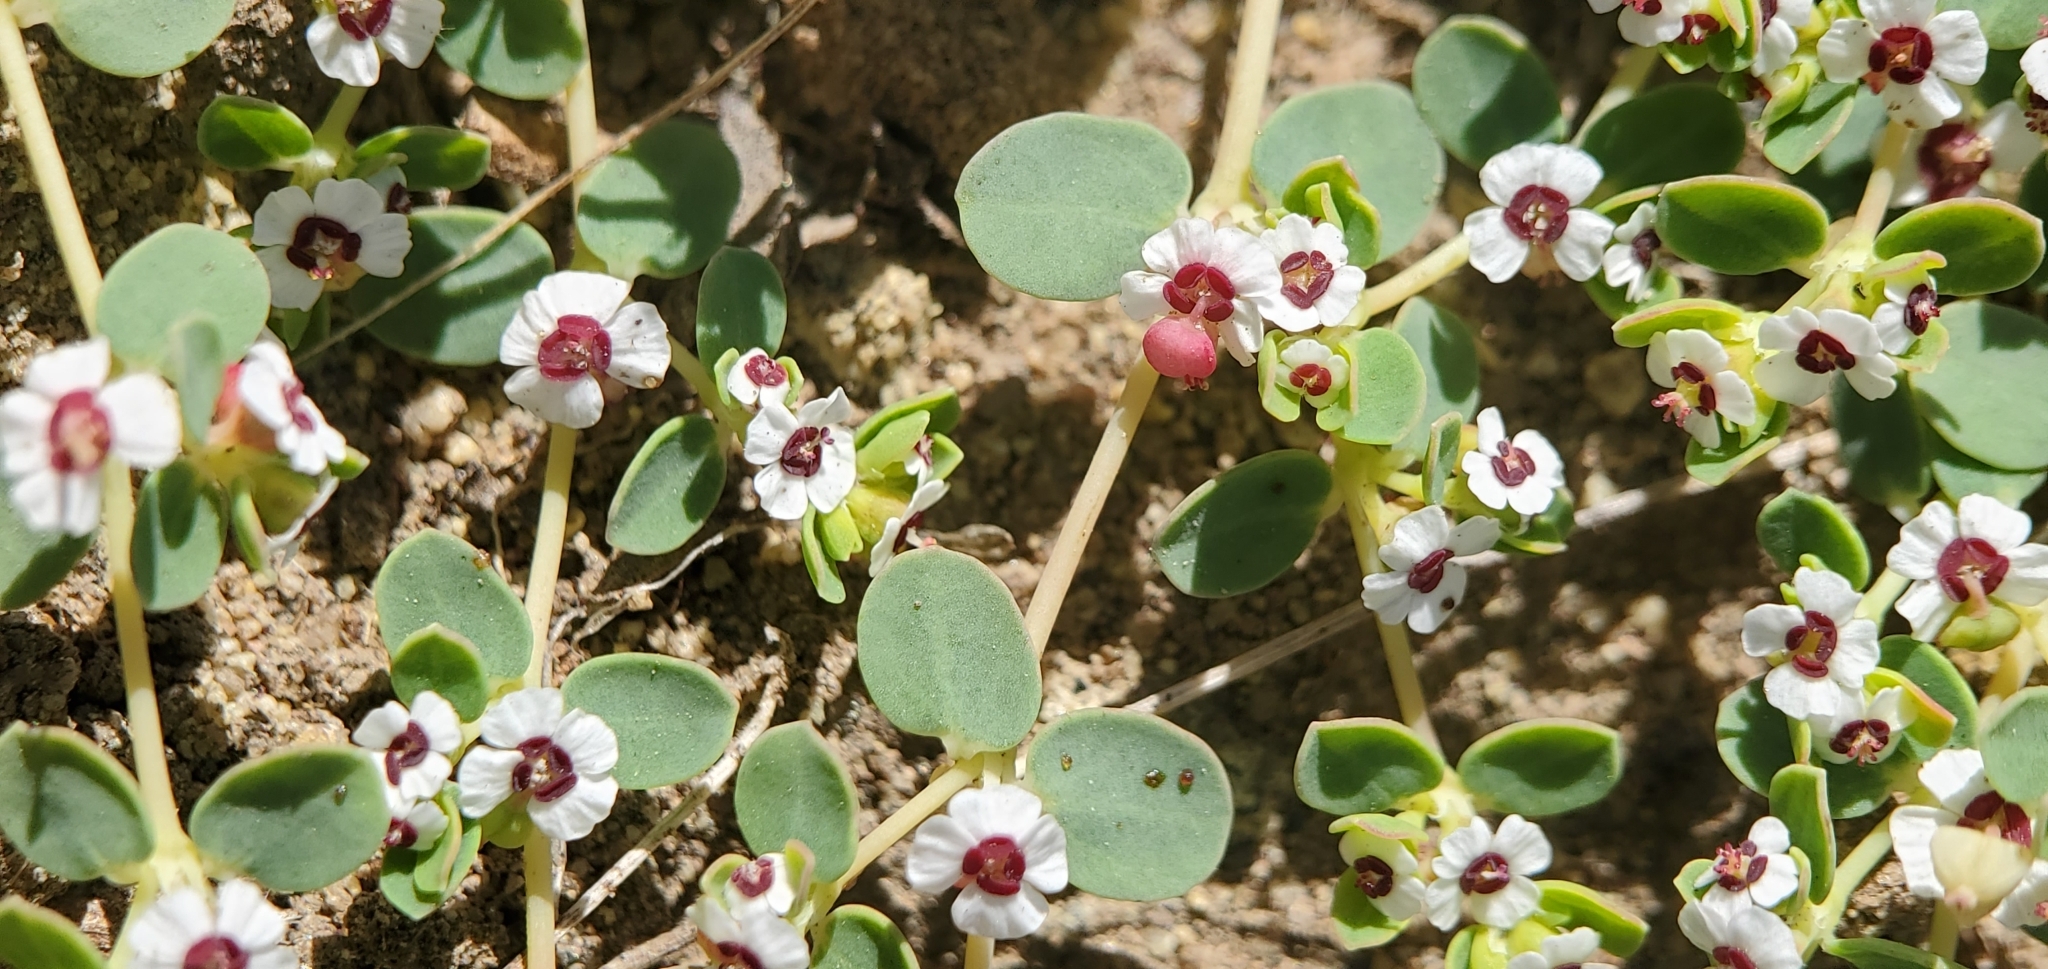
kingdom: Plantae
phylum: Tracheophyta
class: Magnoliopsida
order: Malpighiales
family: Euphorbiaceae
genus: Euphorbia
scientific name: Euphorbia polycarpa
